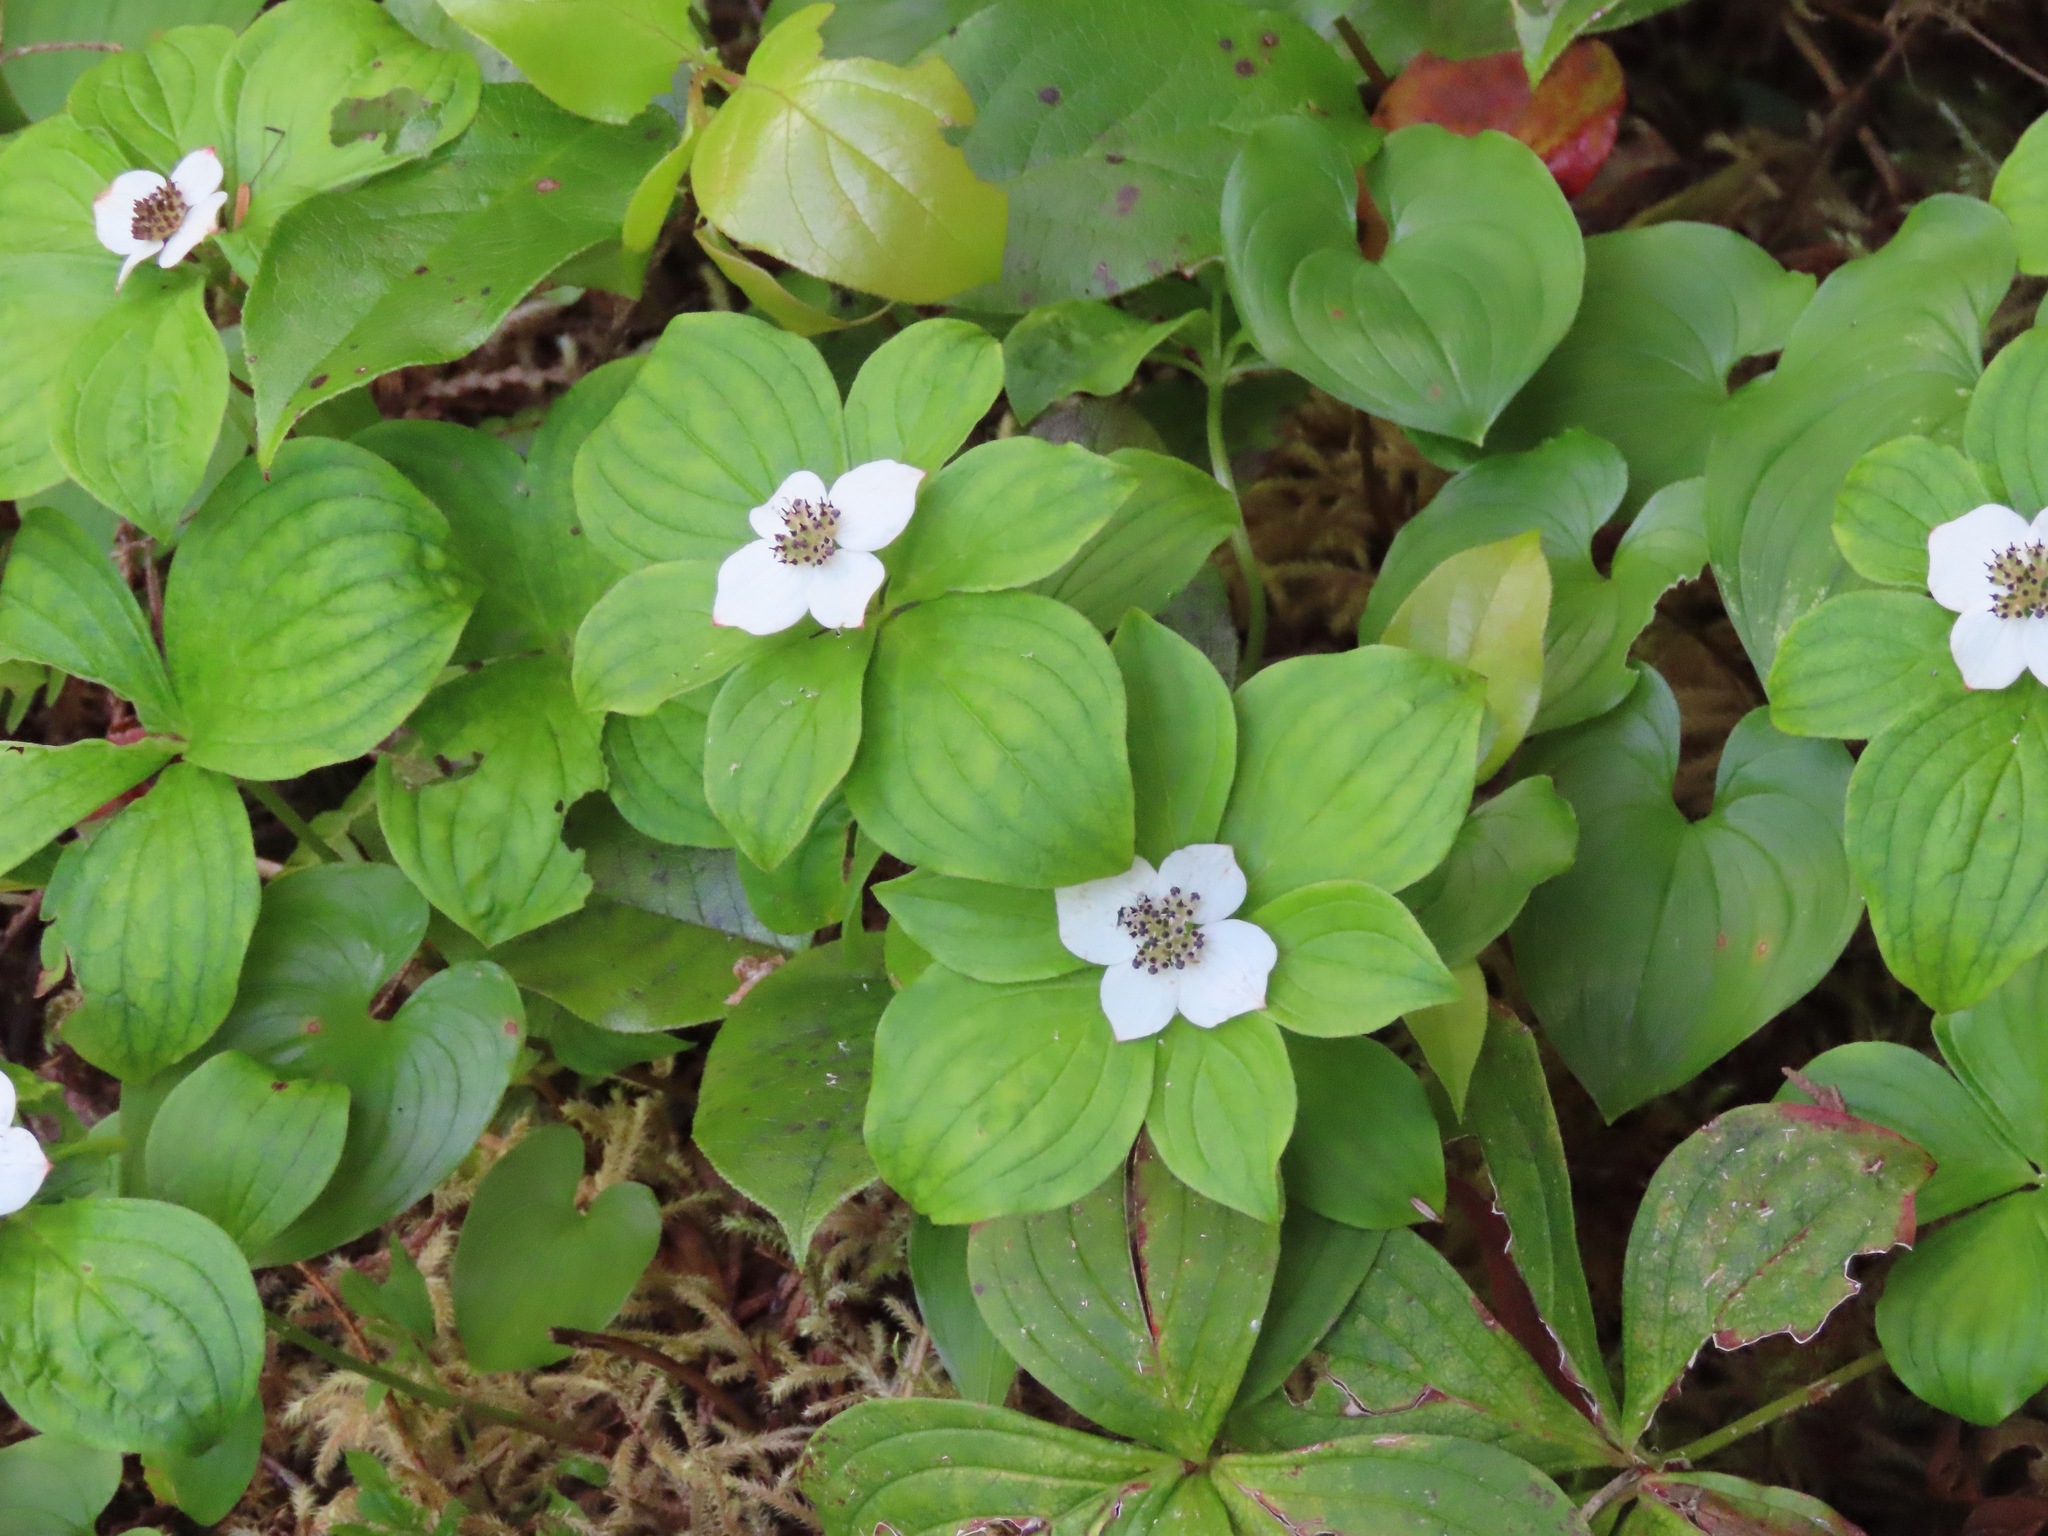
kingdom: Plantae
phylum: Tracheophyta
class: Magnoliopsida
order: Cornales
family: Cornaceae
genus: Cornus
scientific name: Cornus unalaschkensis
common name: Alaska bunchberry
